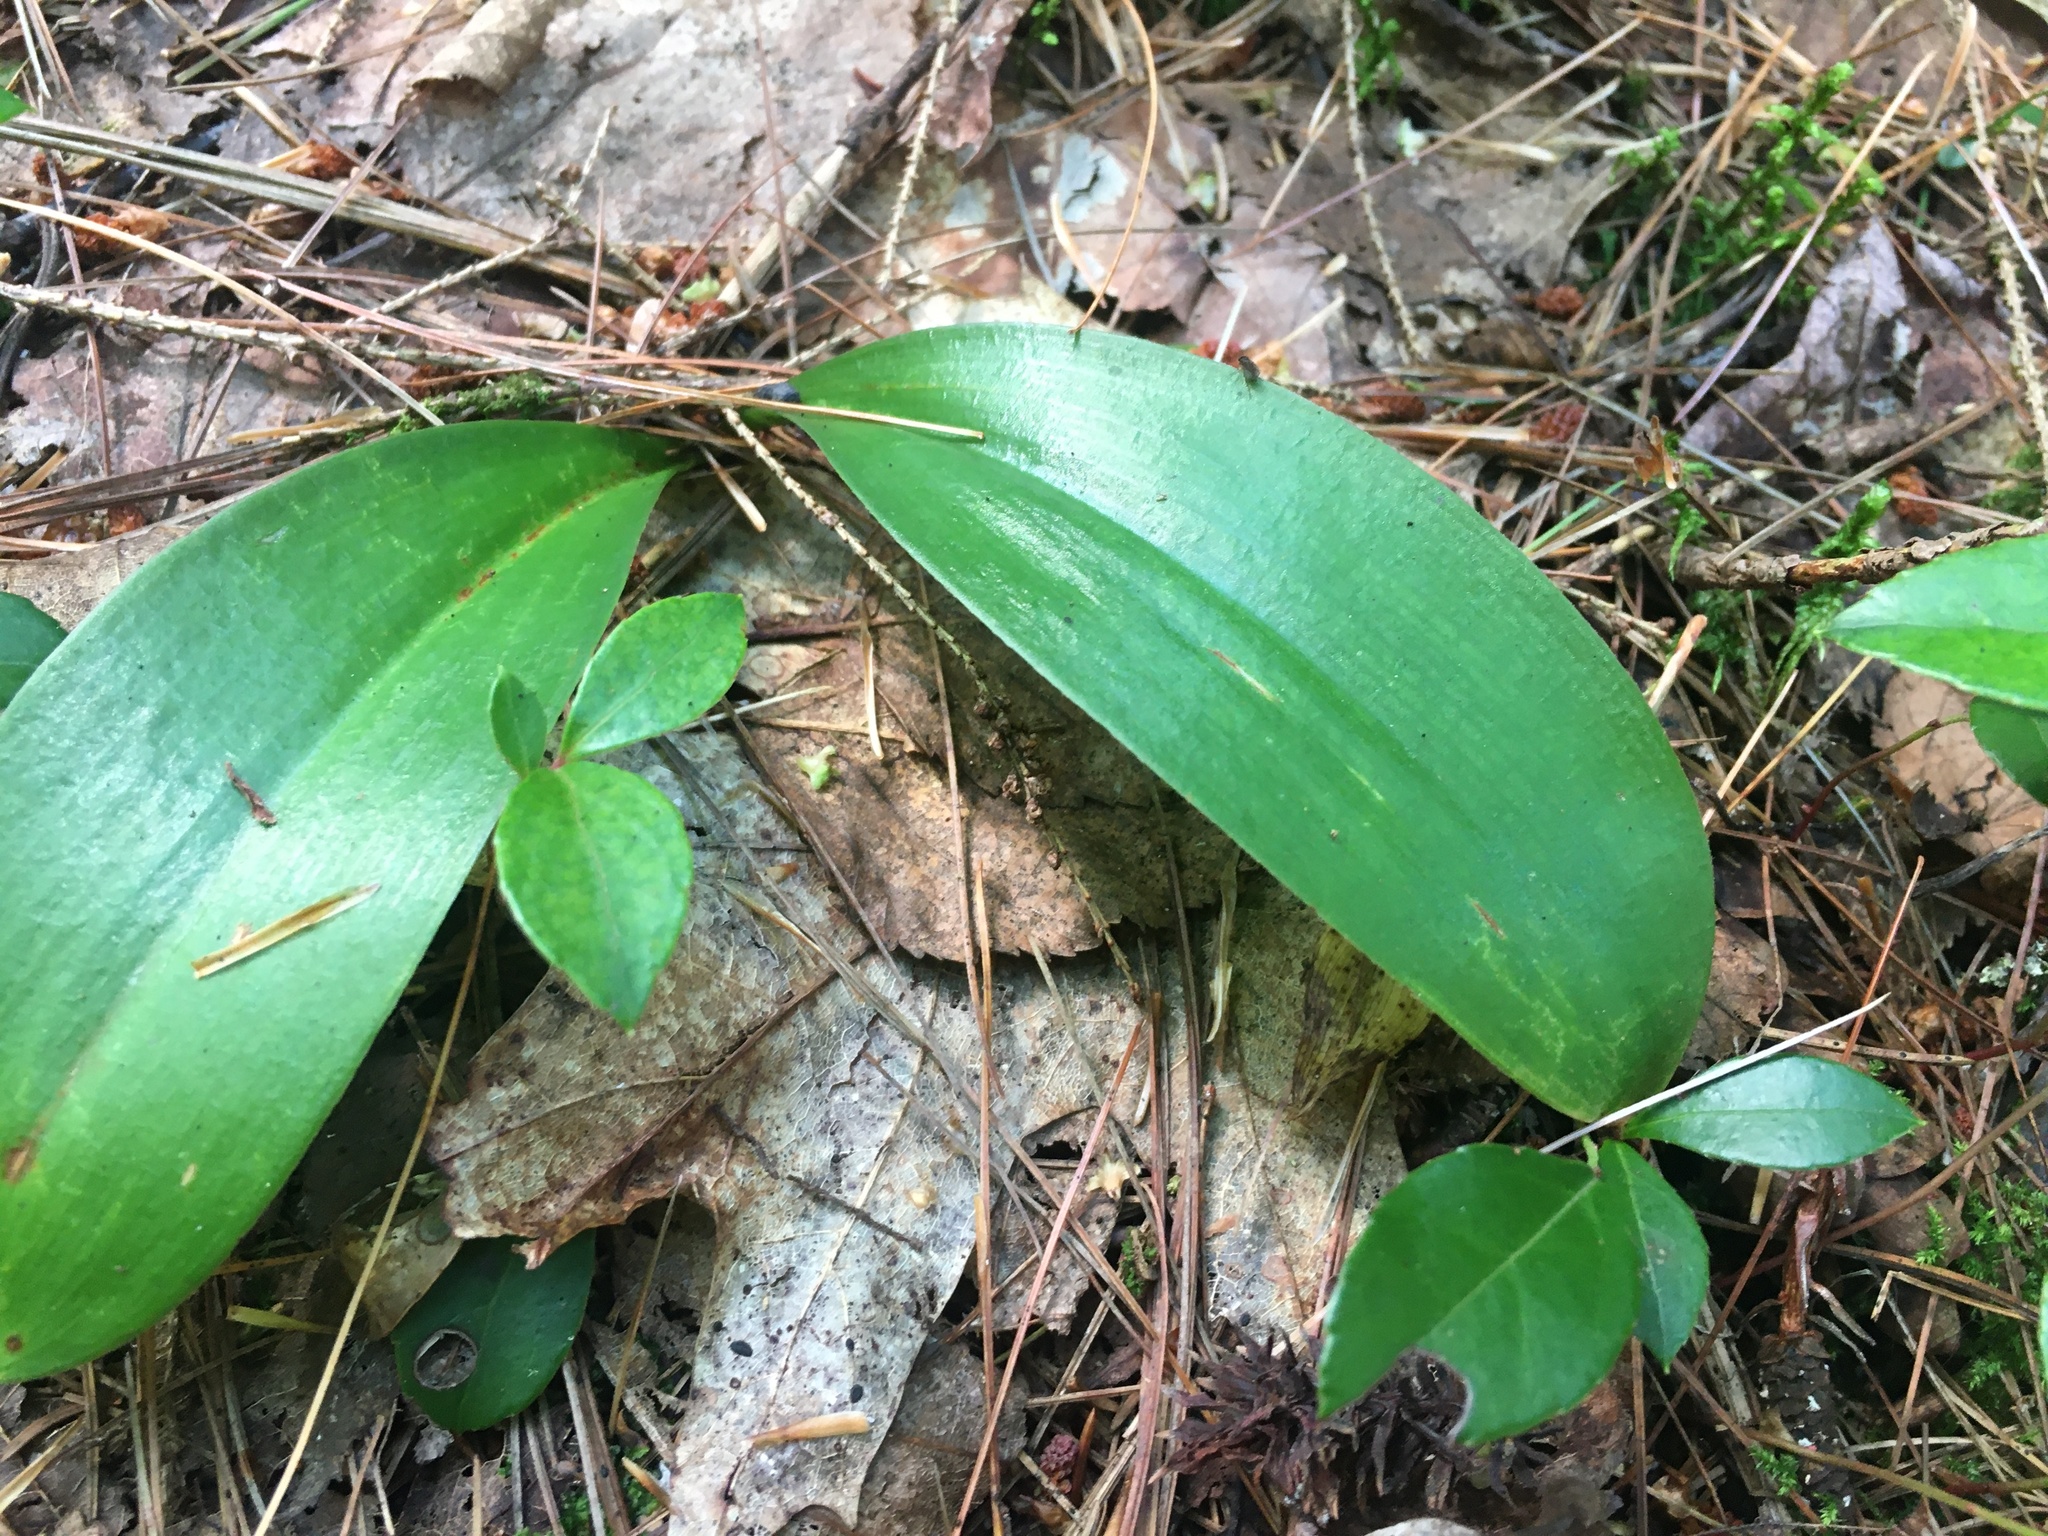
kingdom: Plantae
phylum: Tracheophyta
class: Liliopsida
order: Liliales
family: Liliaceae
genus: Clintonia
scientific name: Clintonia borealis
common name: Yellow clintonia
